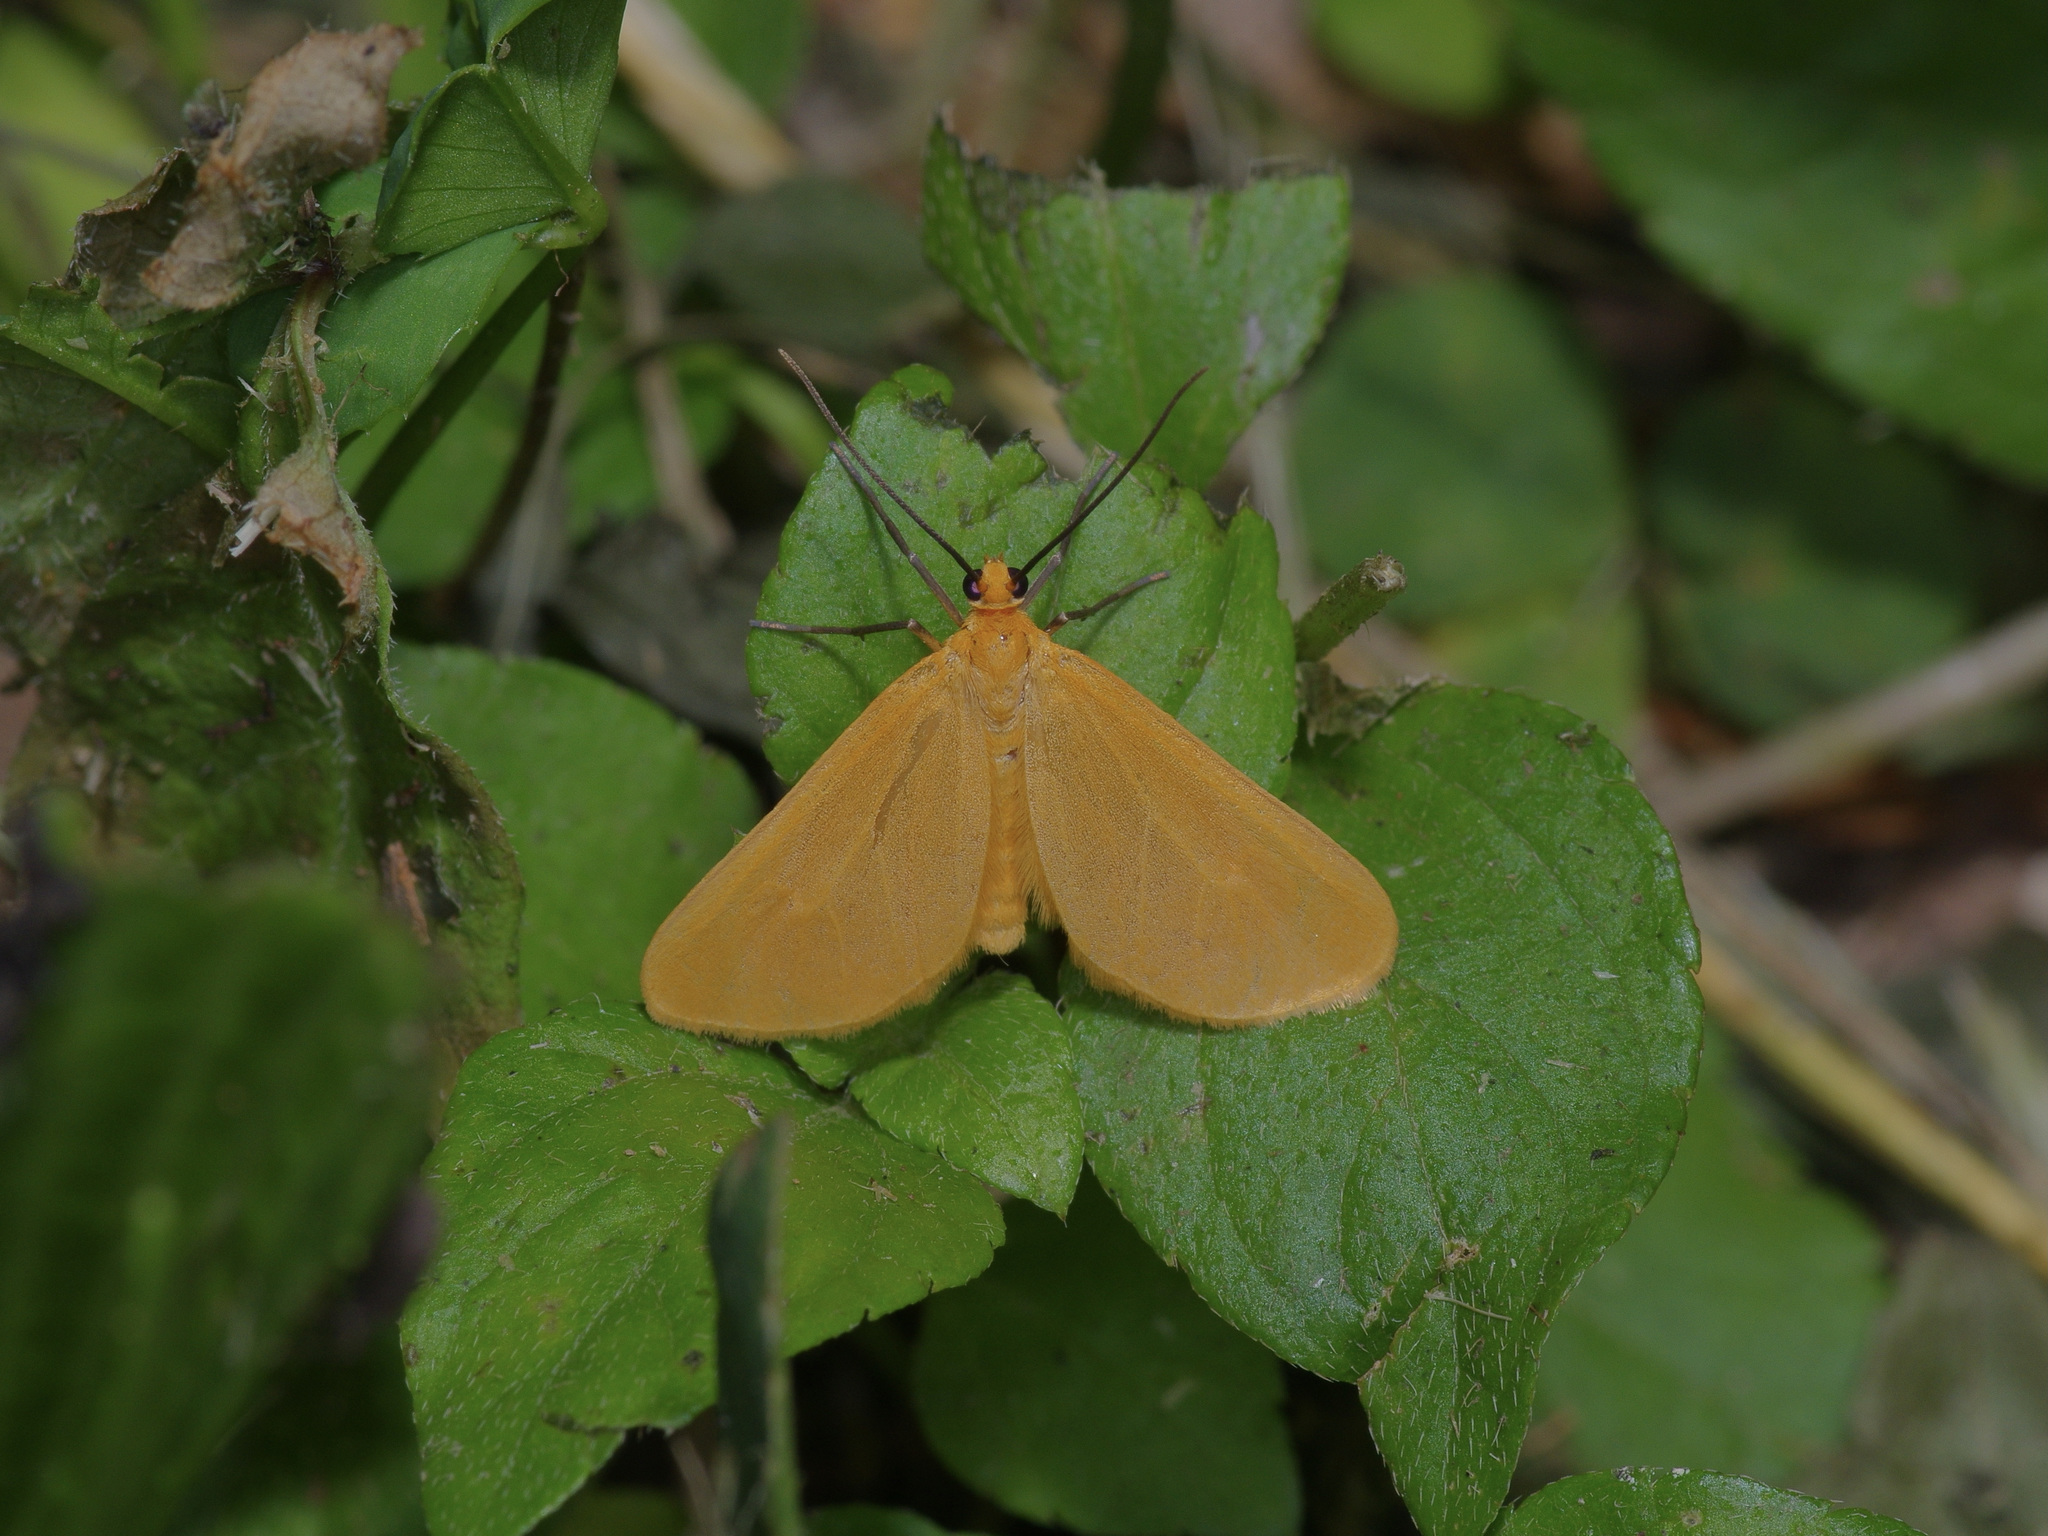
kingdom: Animalia
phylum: Arthropoda
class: Insecta
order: Lepidoptera
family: Geometridae
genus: Eubaphe
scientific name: Eubaphe unicolor
